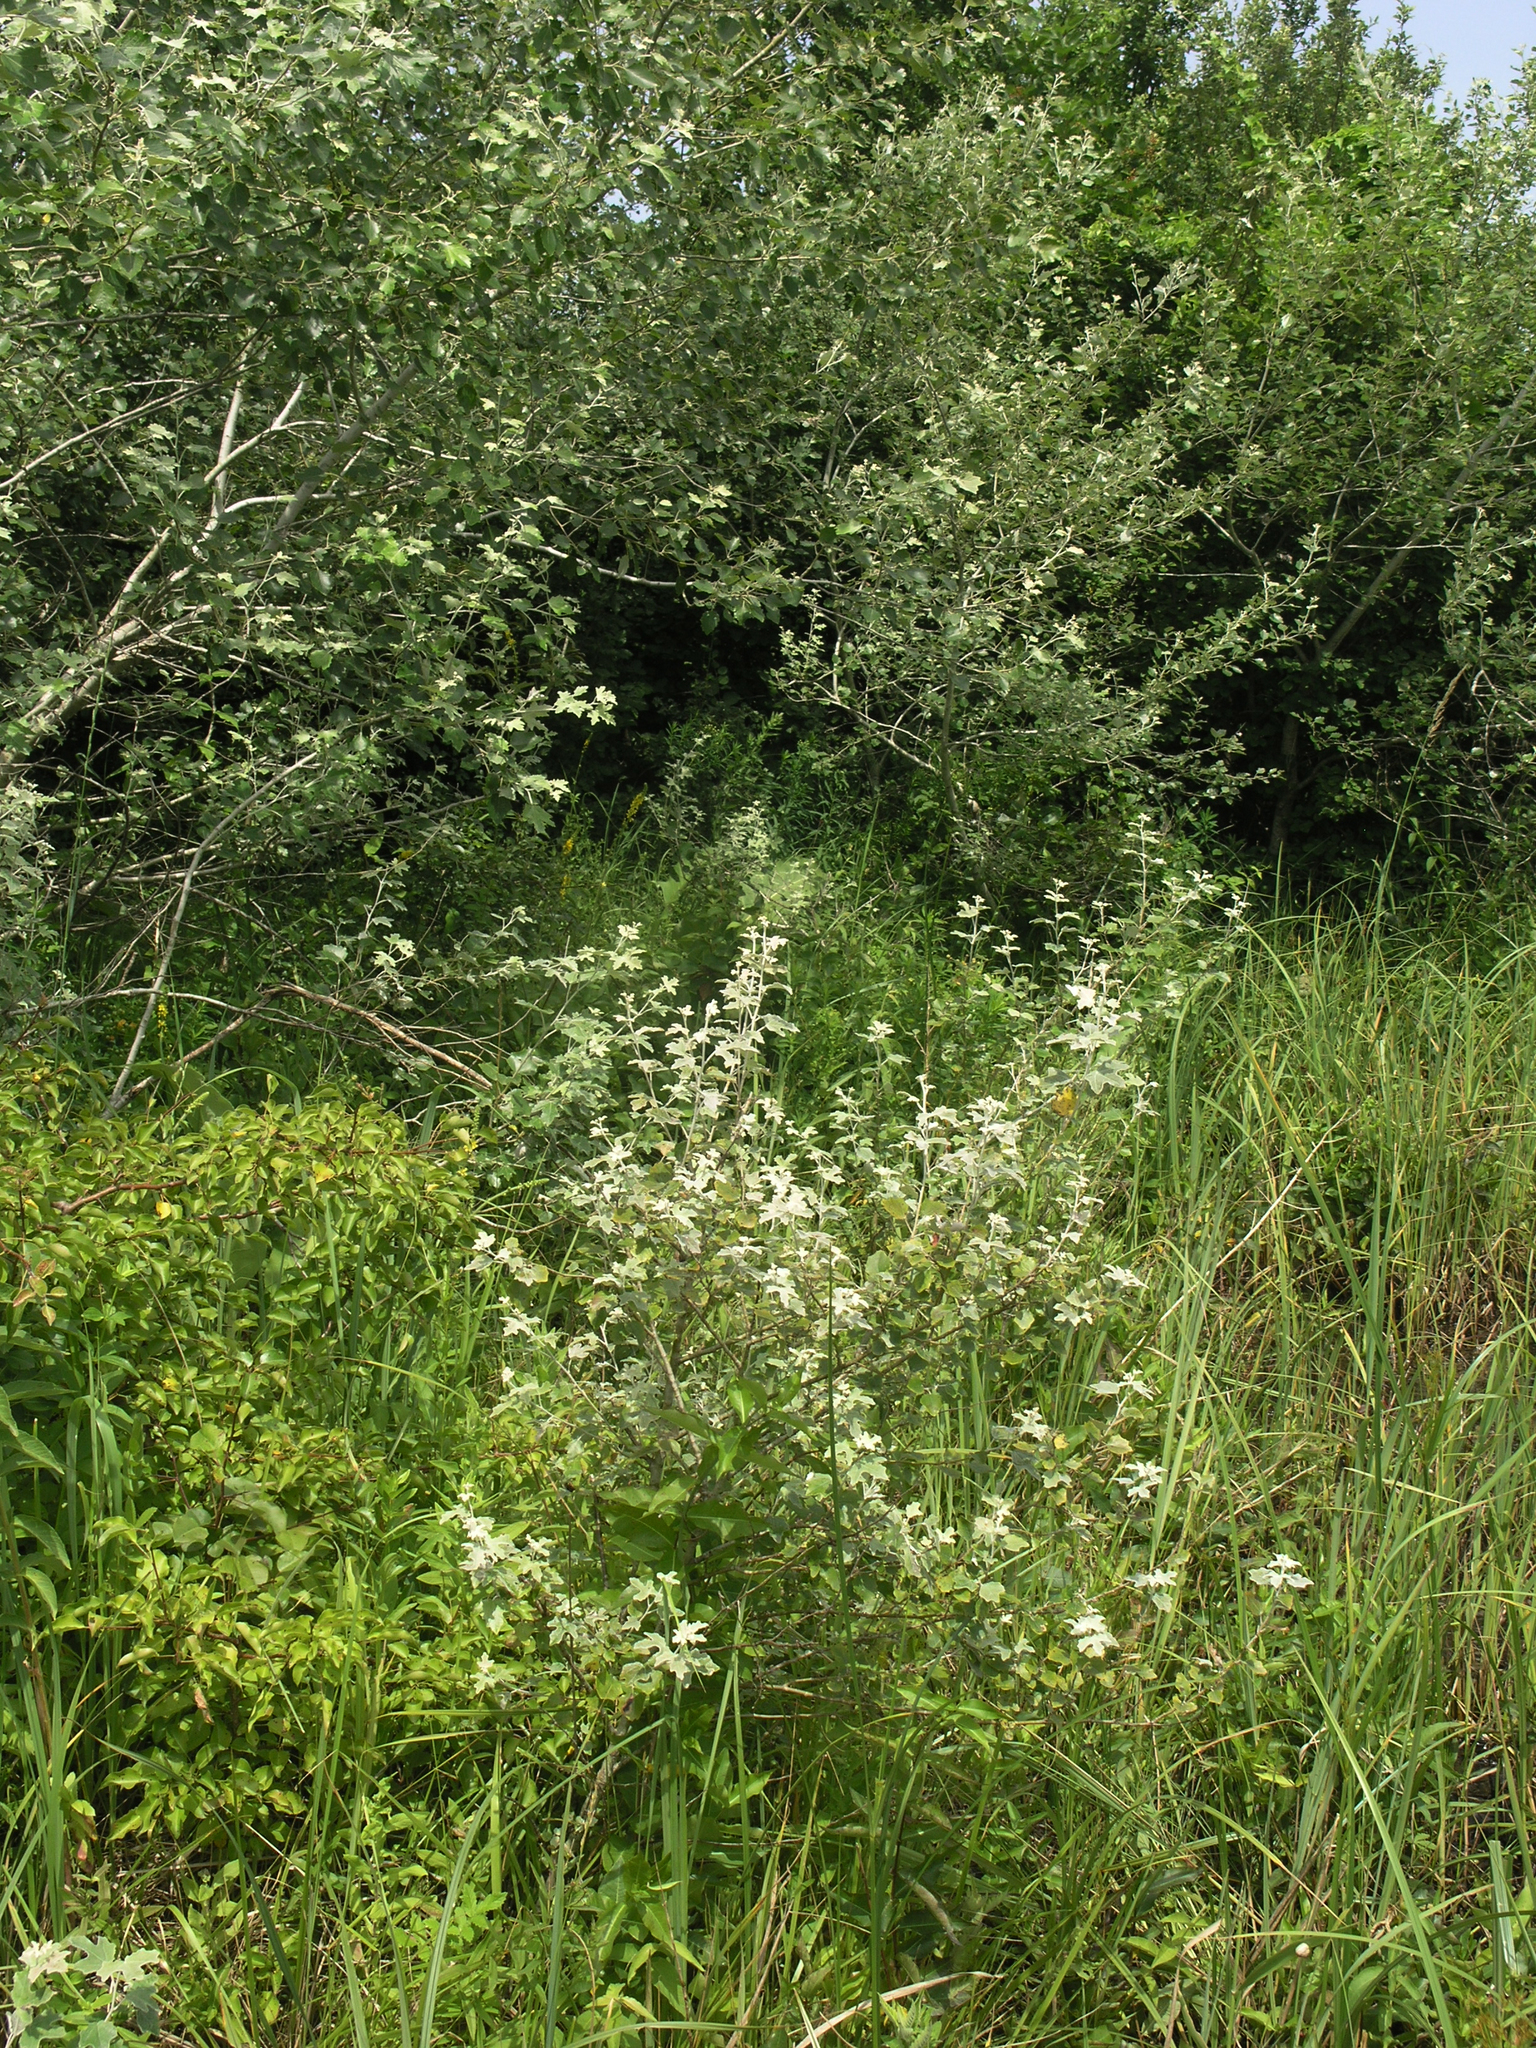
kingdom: Plantae
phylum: Tracheophyta
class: Magnoliopsida
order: Malpighiales
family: Salicaceae
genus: Populus
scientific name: Populus alba
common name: White poplar
